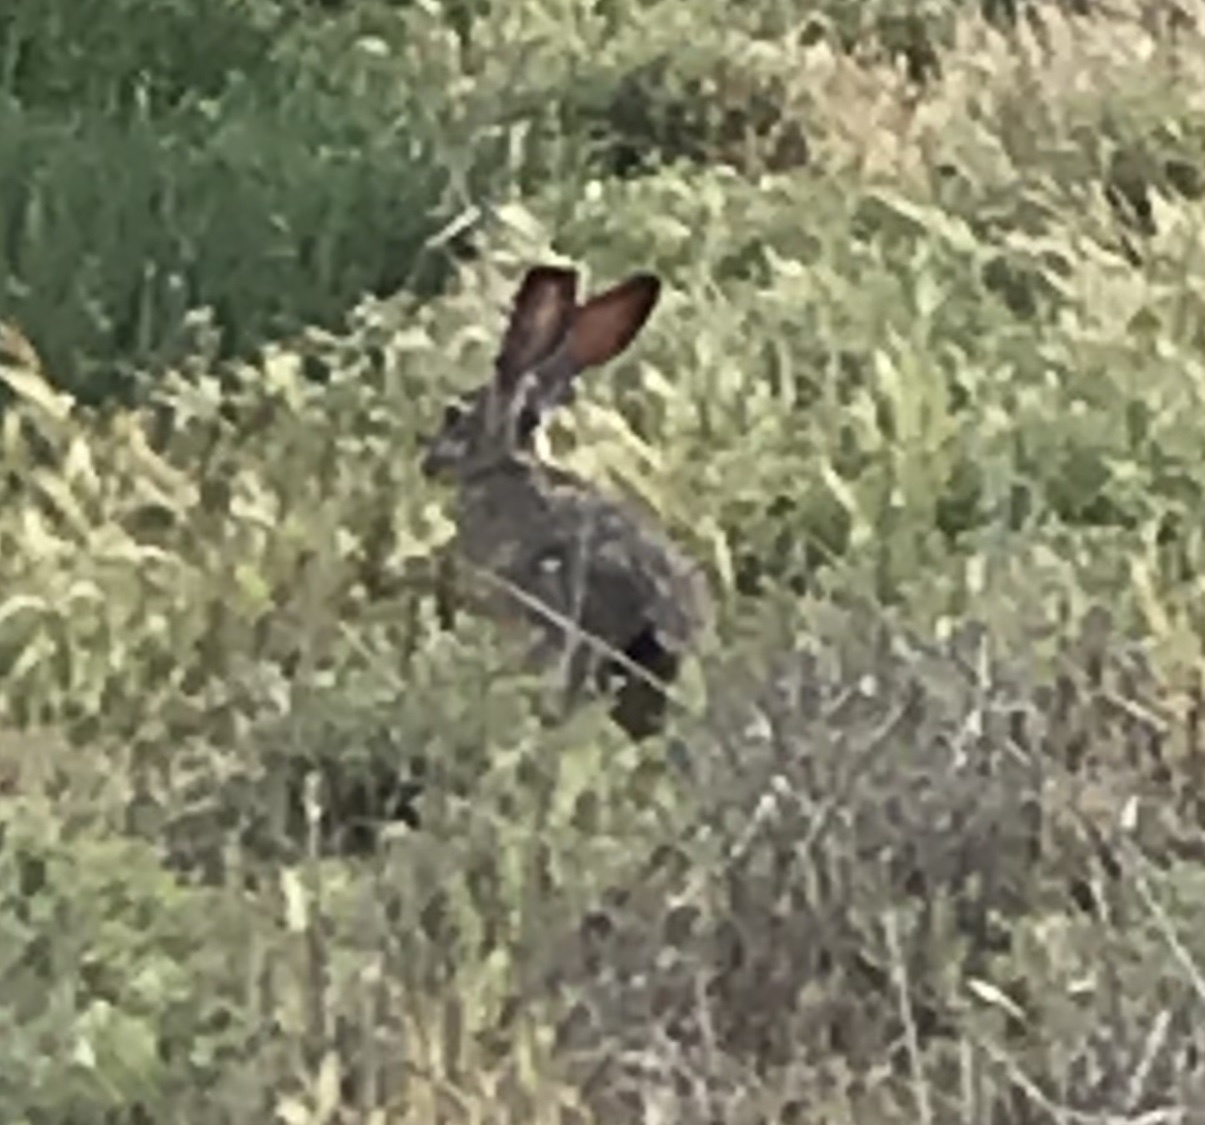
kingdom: Animalia
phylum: Chordata
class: Mammalia
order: Lagomorpha
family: Leporidae
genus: Lepus
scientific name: Lepus californicus
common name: Black-tailed jackrabbit
